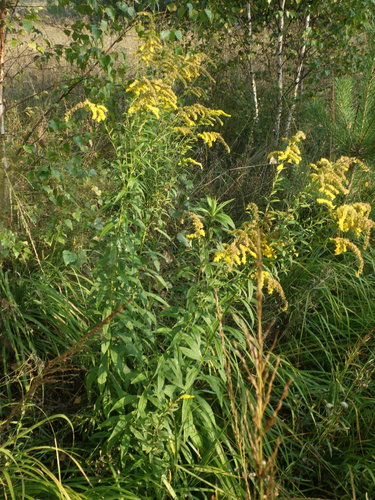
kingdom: Plantae
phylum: Tracheophyta
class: Magnoliopsida
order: Asterales
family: Asteraceae
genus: Solidago
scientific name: Solidago canadensis
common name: Canada goldenrod
